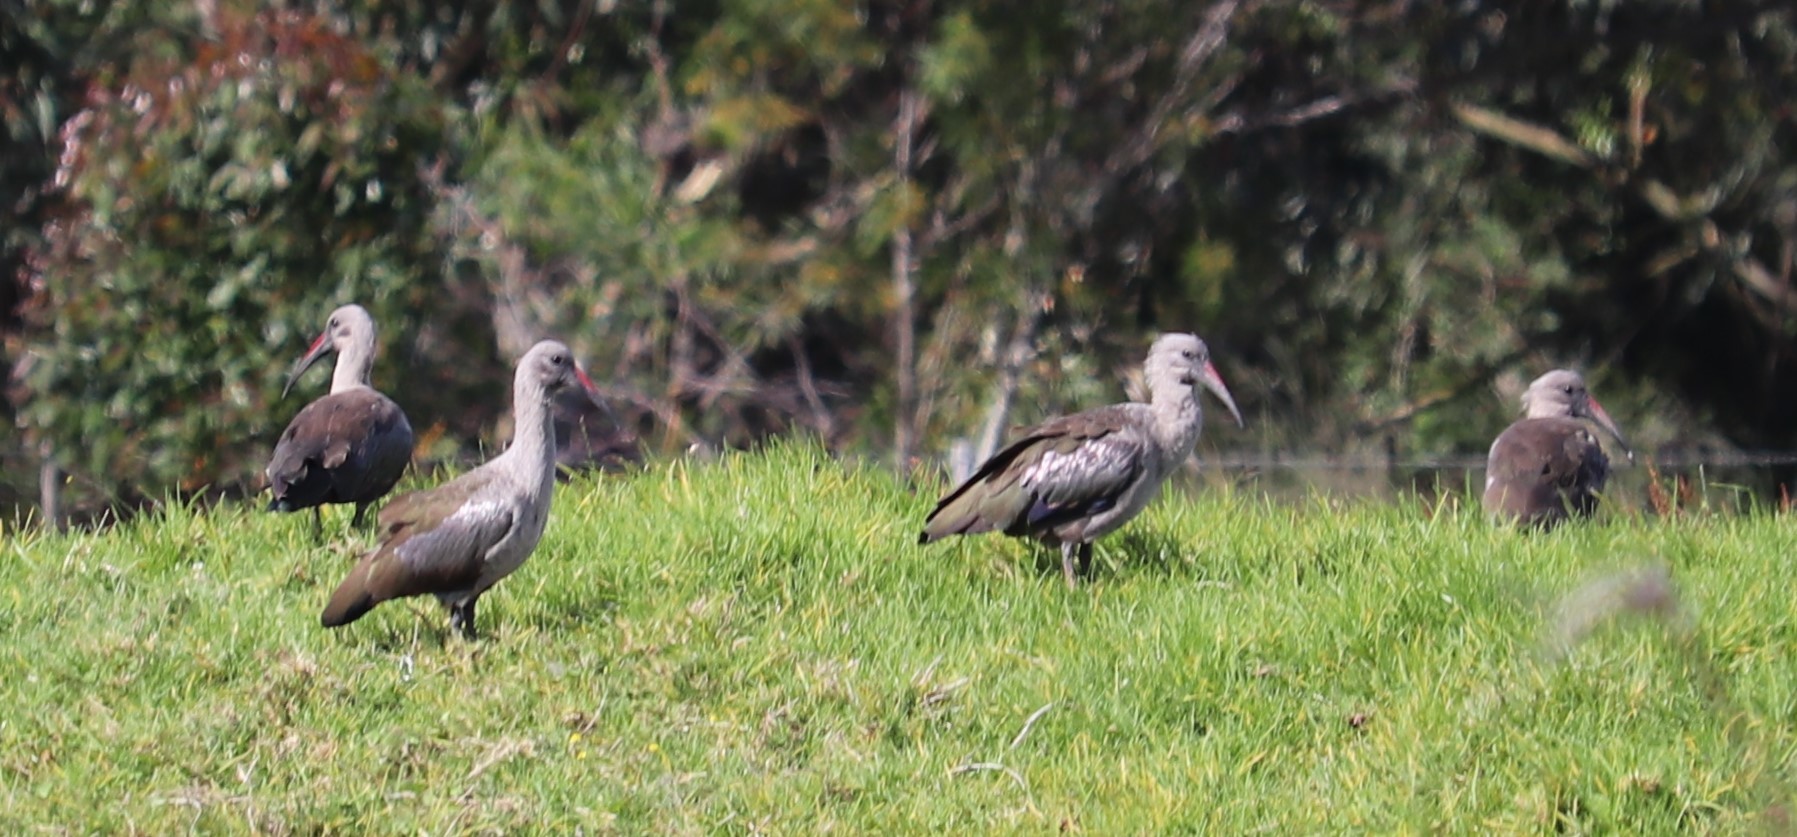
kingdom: Animalia
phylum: Chordata
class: Aves
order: Pelecaniformes
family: Threskiornithidae
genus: Bostrychia
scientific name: Bostrychia hagedash
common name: Hadada ibis
